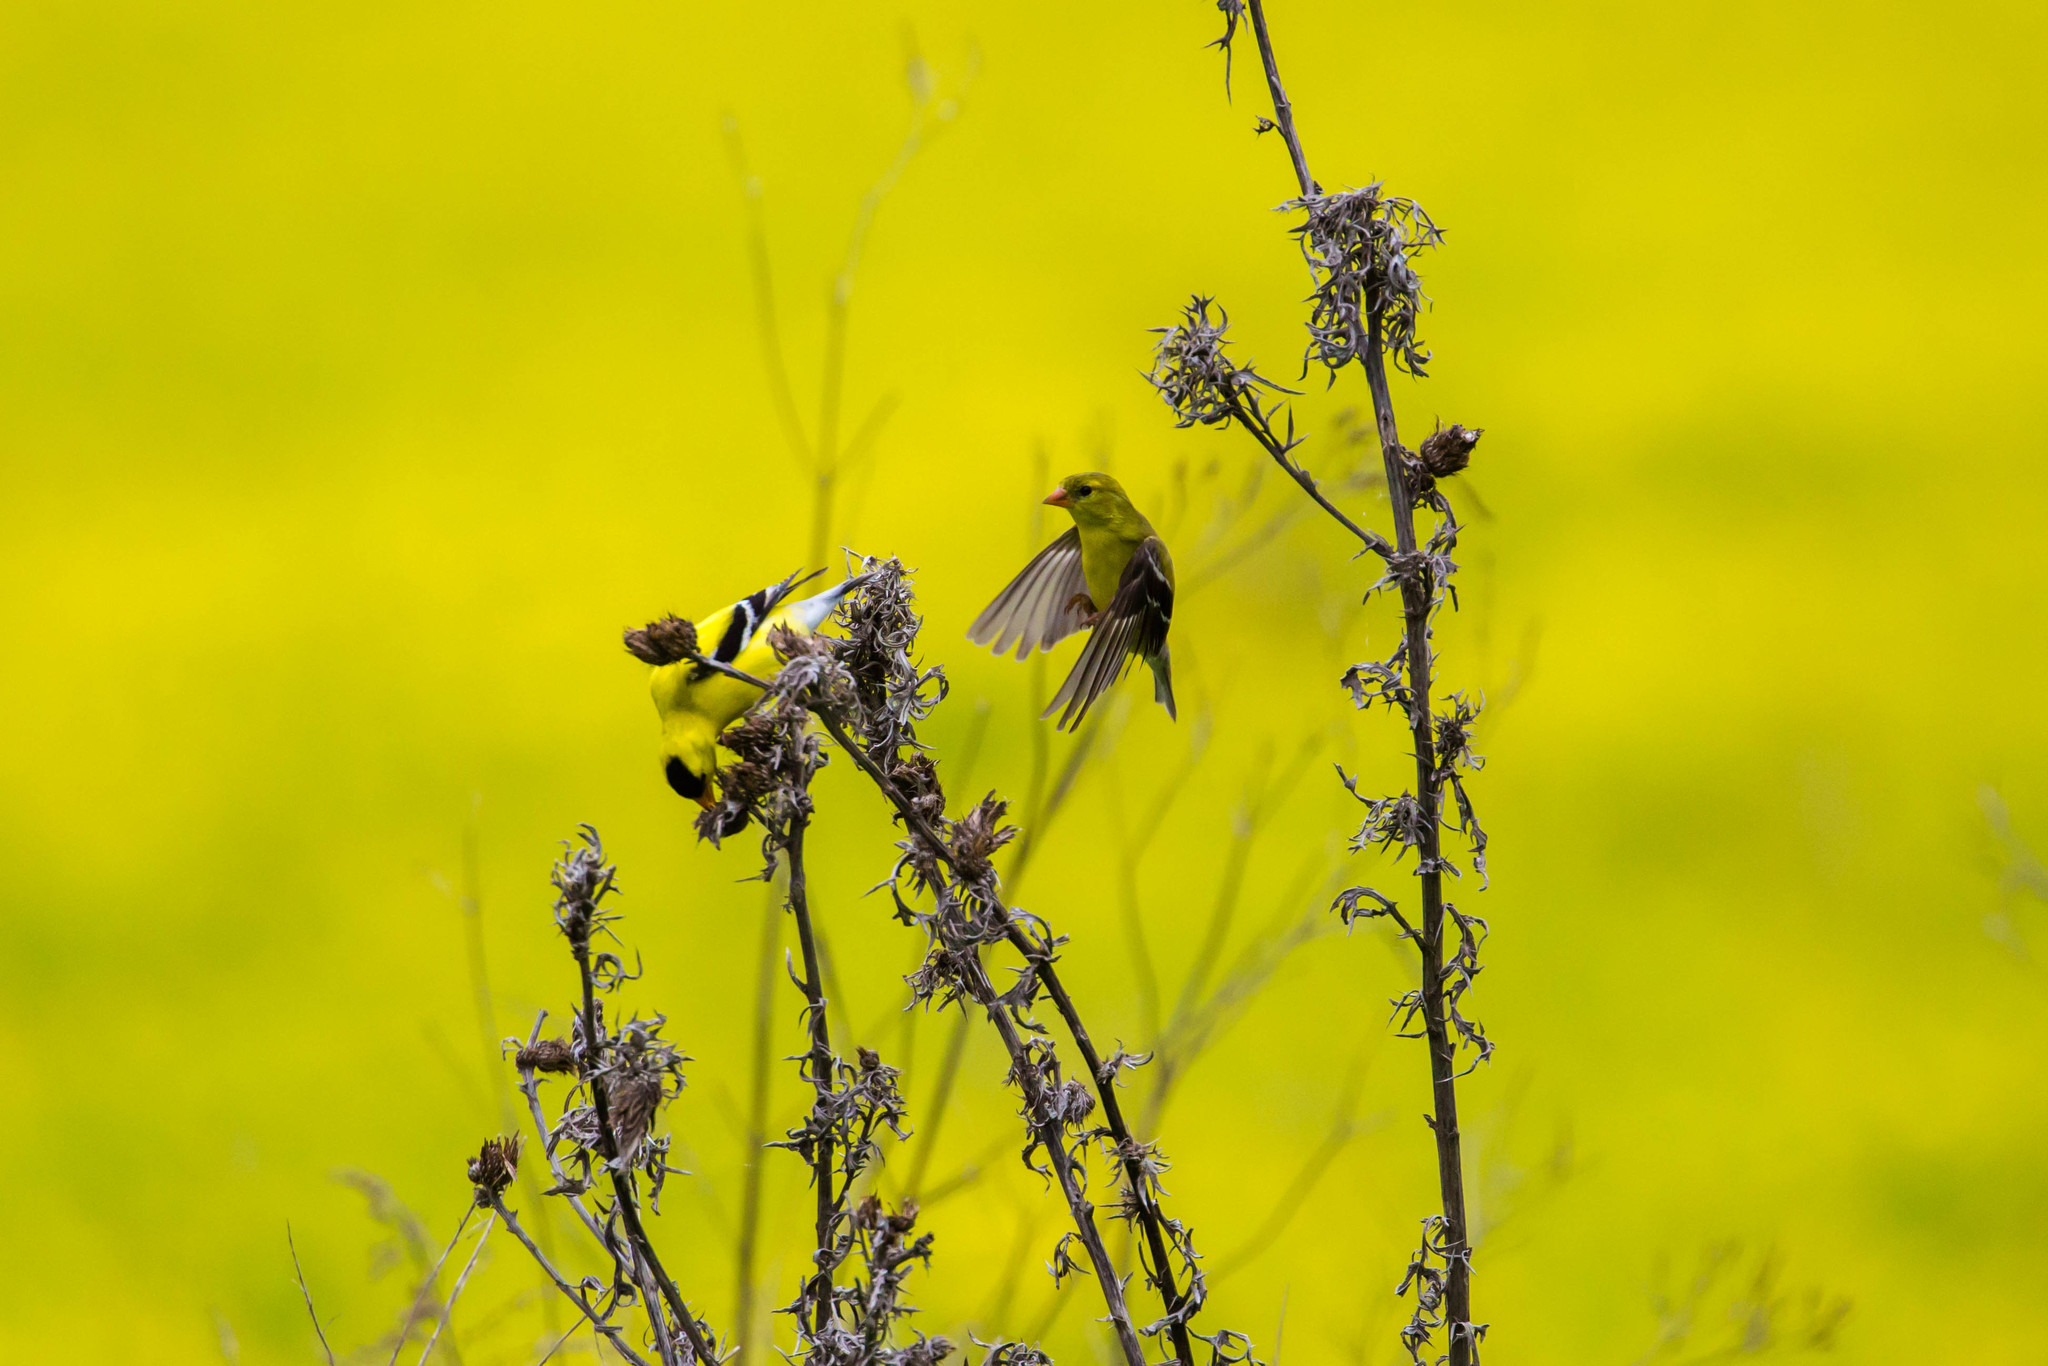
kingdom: Animalia
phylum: Chordata
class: Aves
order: Passeriformes
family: Fringillidae
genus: Spinus
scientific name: Spinus tristis
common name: American goldfinch
